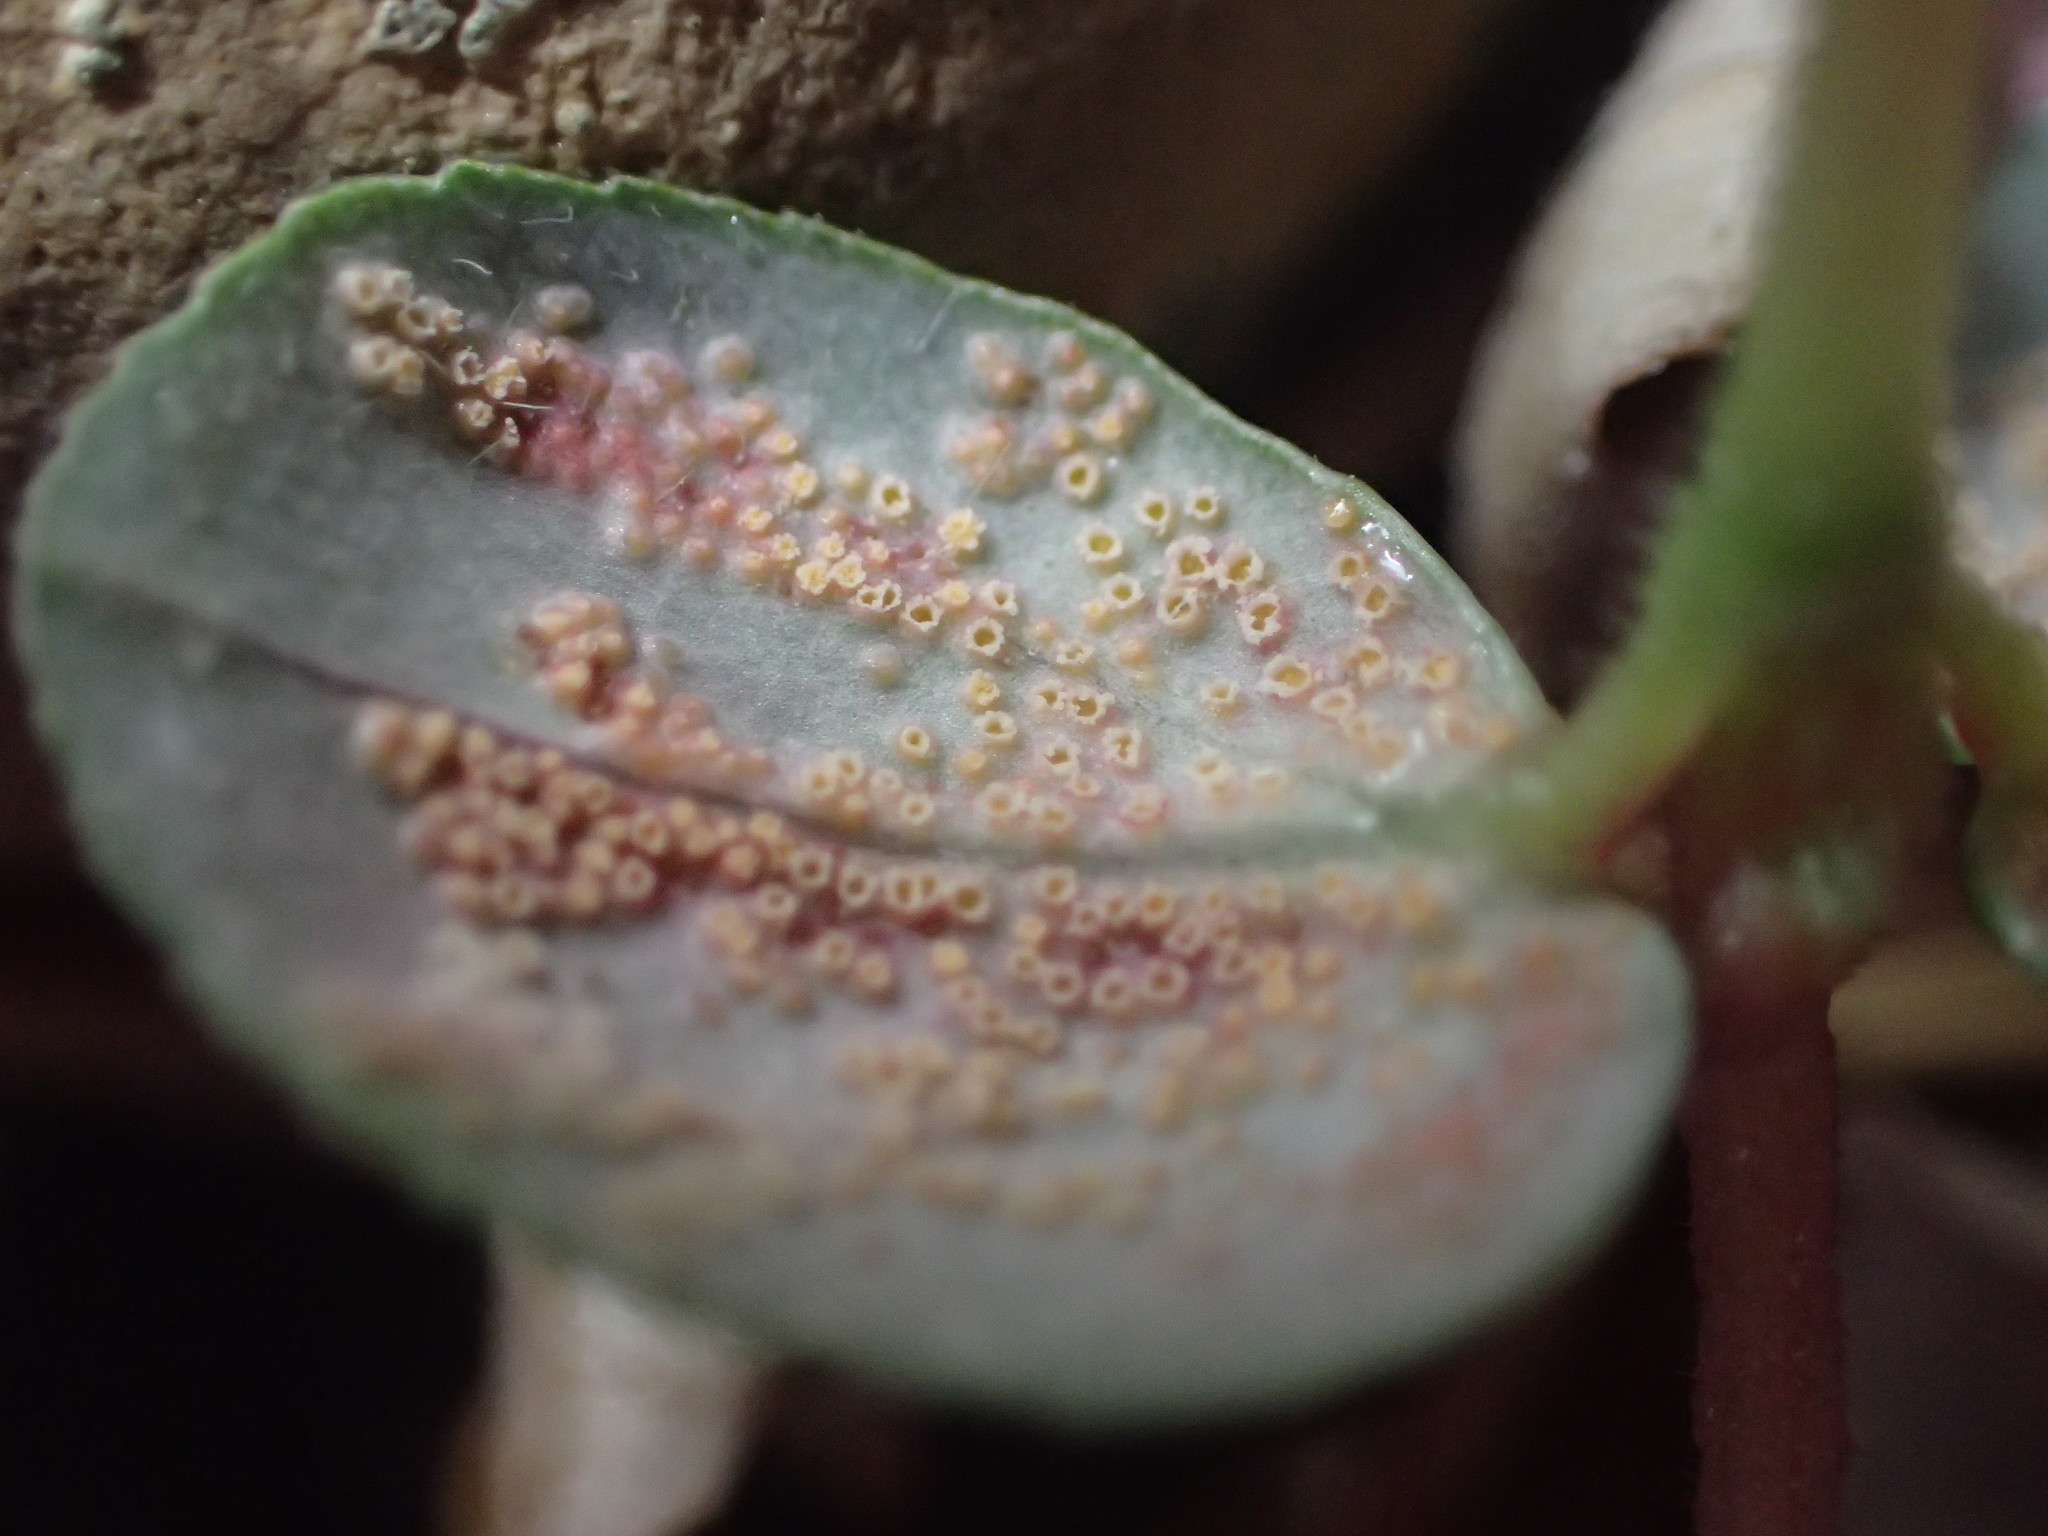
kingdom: Fungi
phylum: Basidiomycota
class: Pucciniomycetes
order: Pucciniales
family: Pucciniaceae
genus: Uromyces
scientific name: Uromyces proeminens
